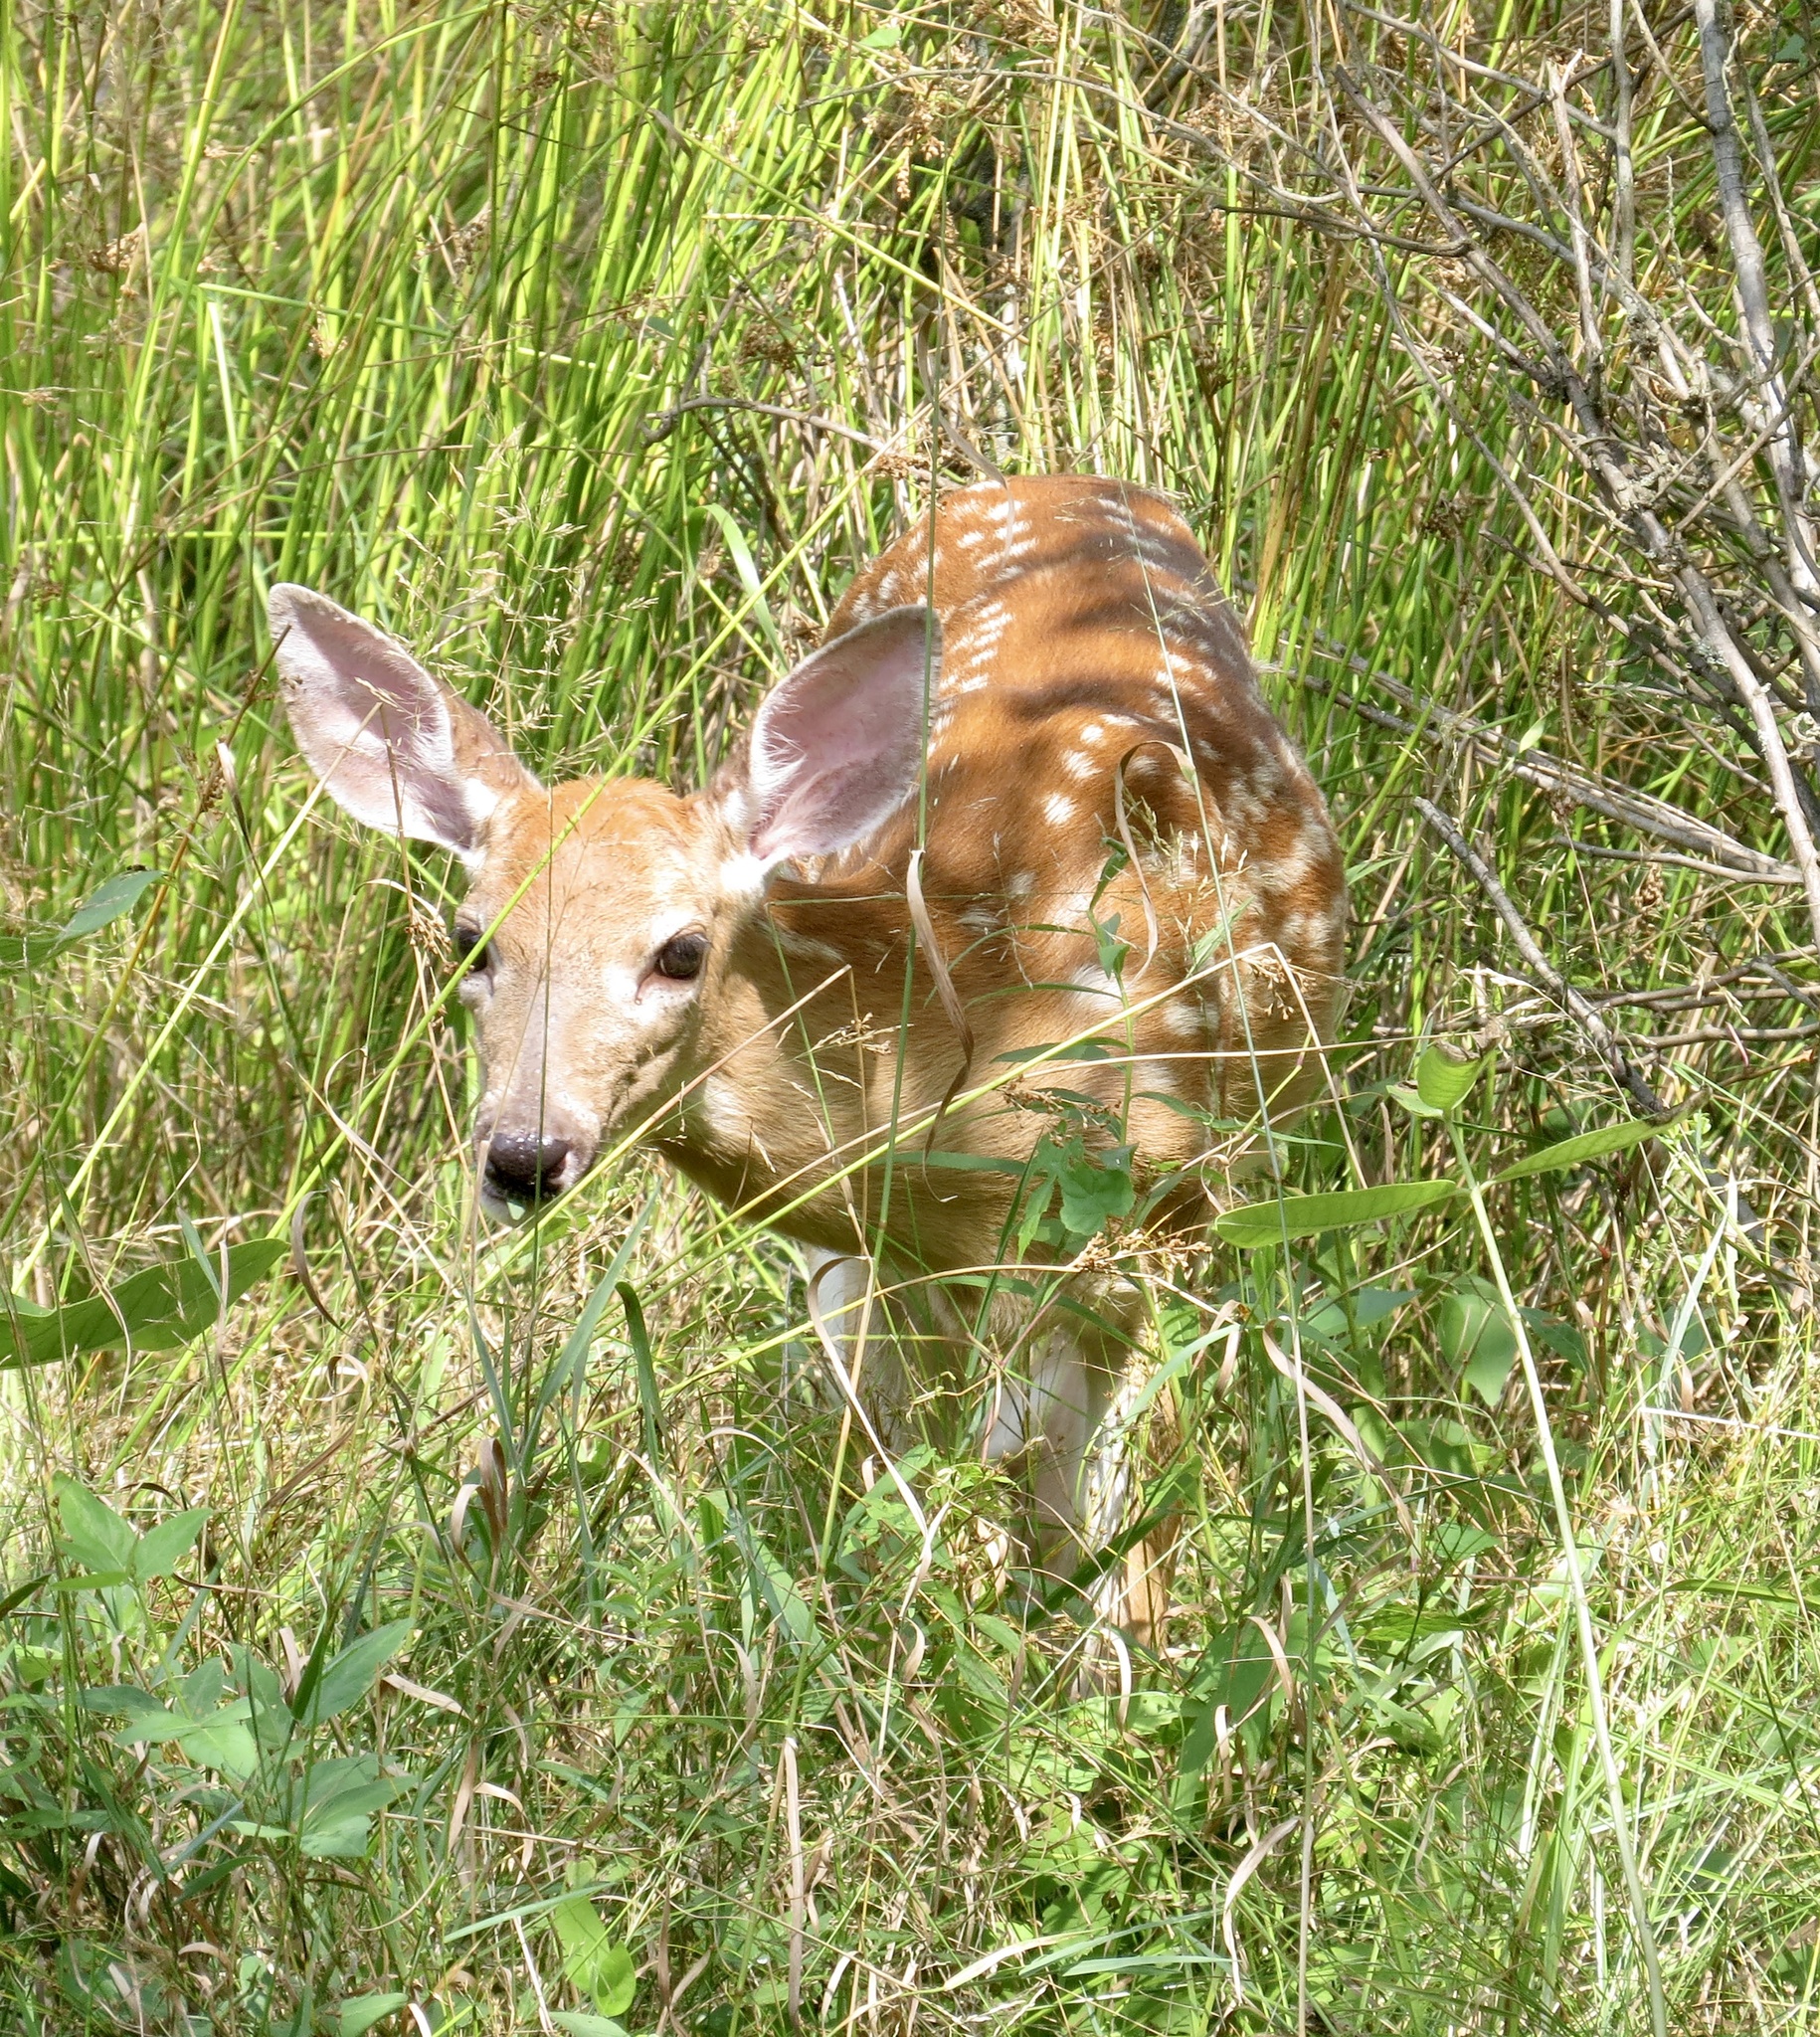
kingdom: Animalia
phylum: Chordata
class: Mammalia
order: Artiodactyla
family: Cervidae
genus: Odocoileus
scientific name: Odocoileus virginianus
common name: White-tailed deer
